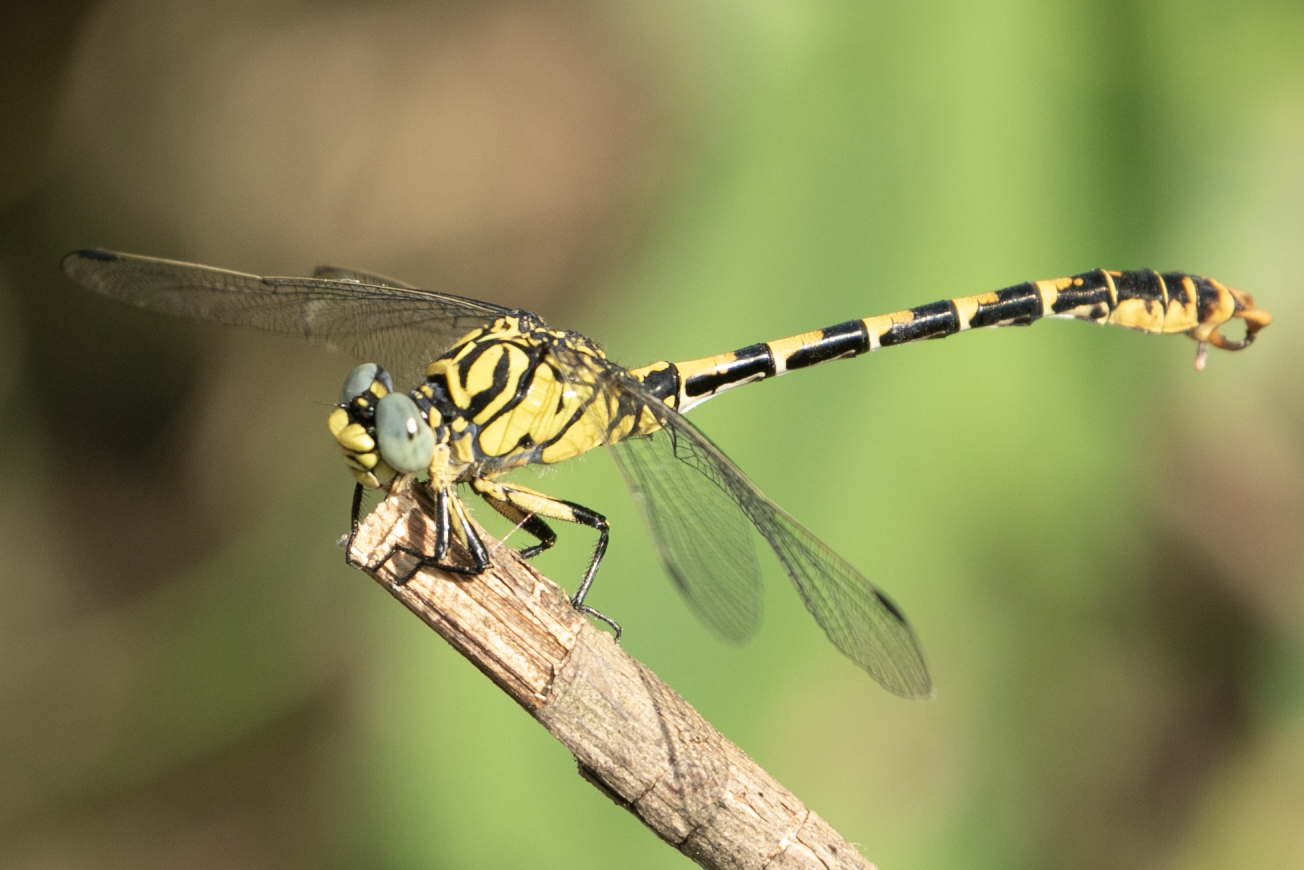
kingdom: Animalia
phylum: Arthropoda
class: Insecta
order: Odonata
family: Gomphidae
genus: Onychogomphus
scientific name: Onychogomphus forcipatus
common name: Small pincertail
